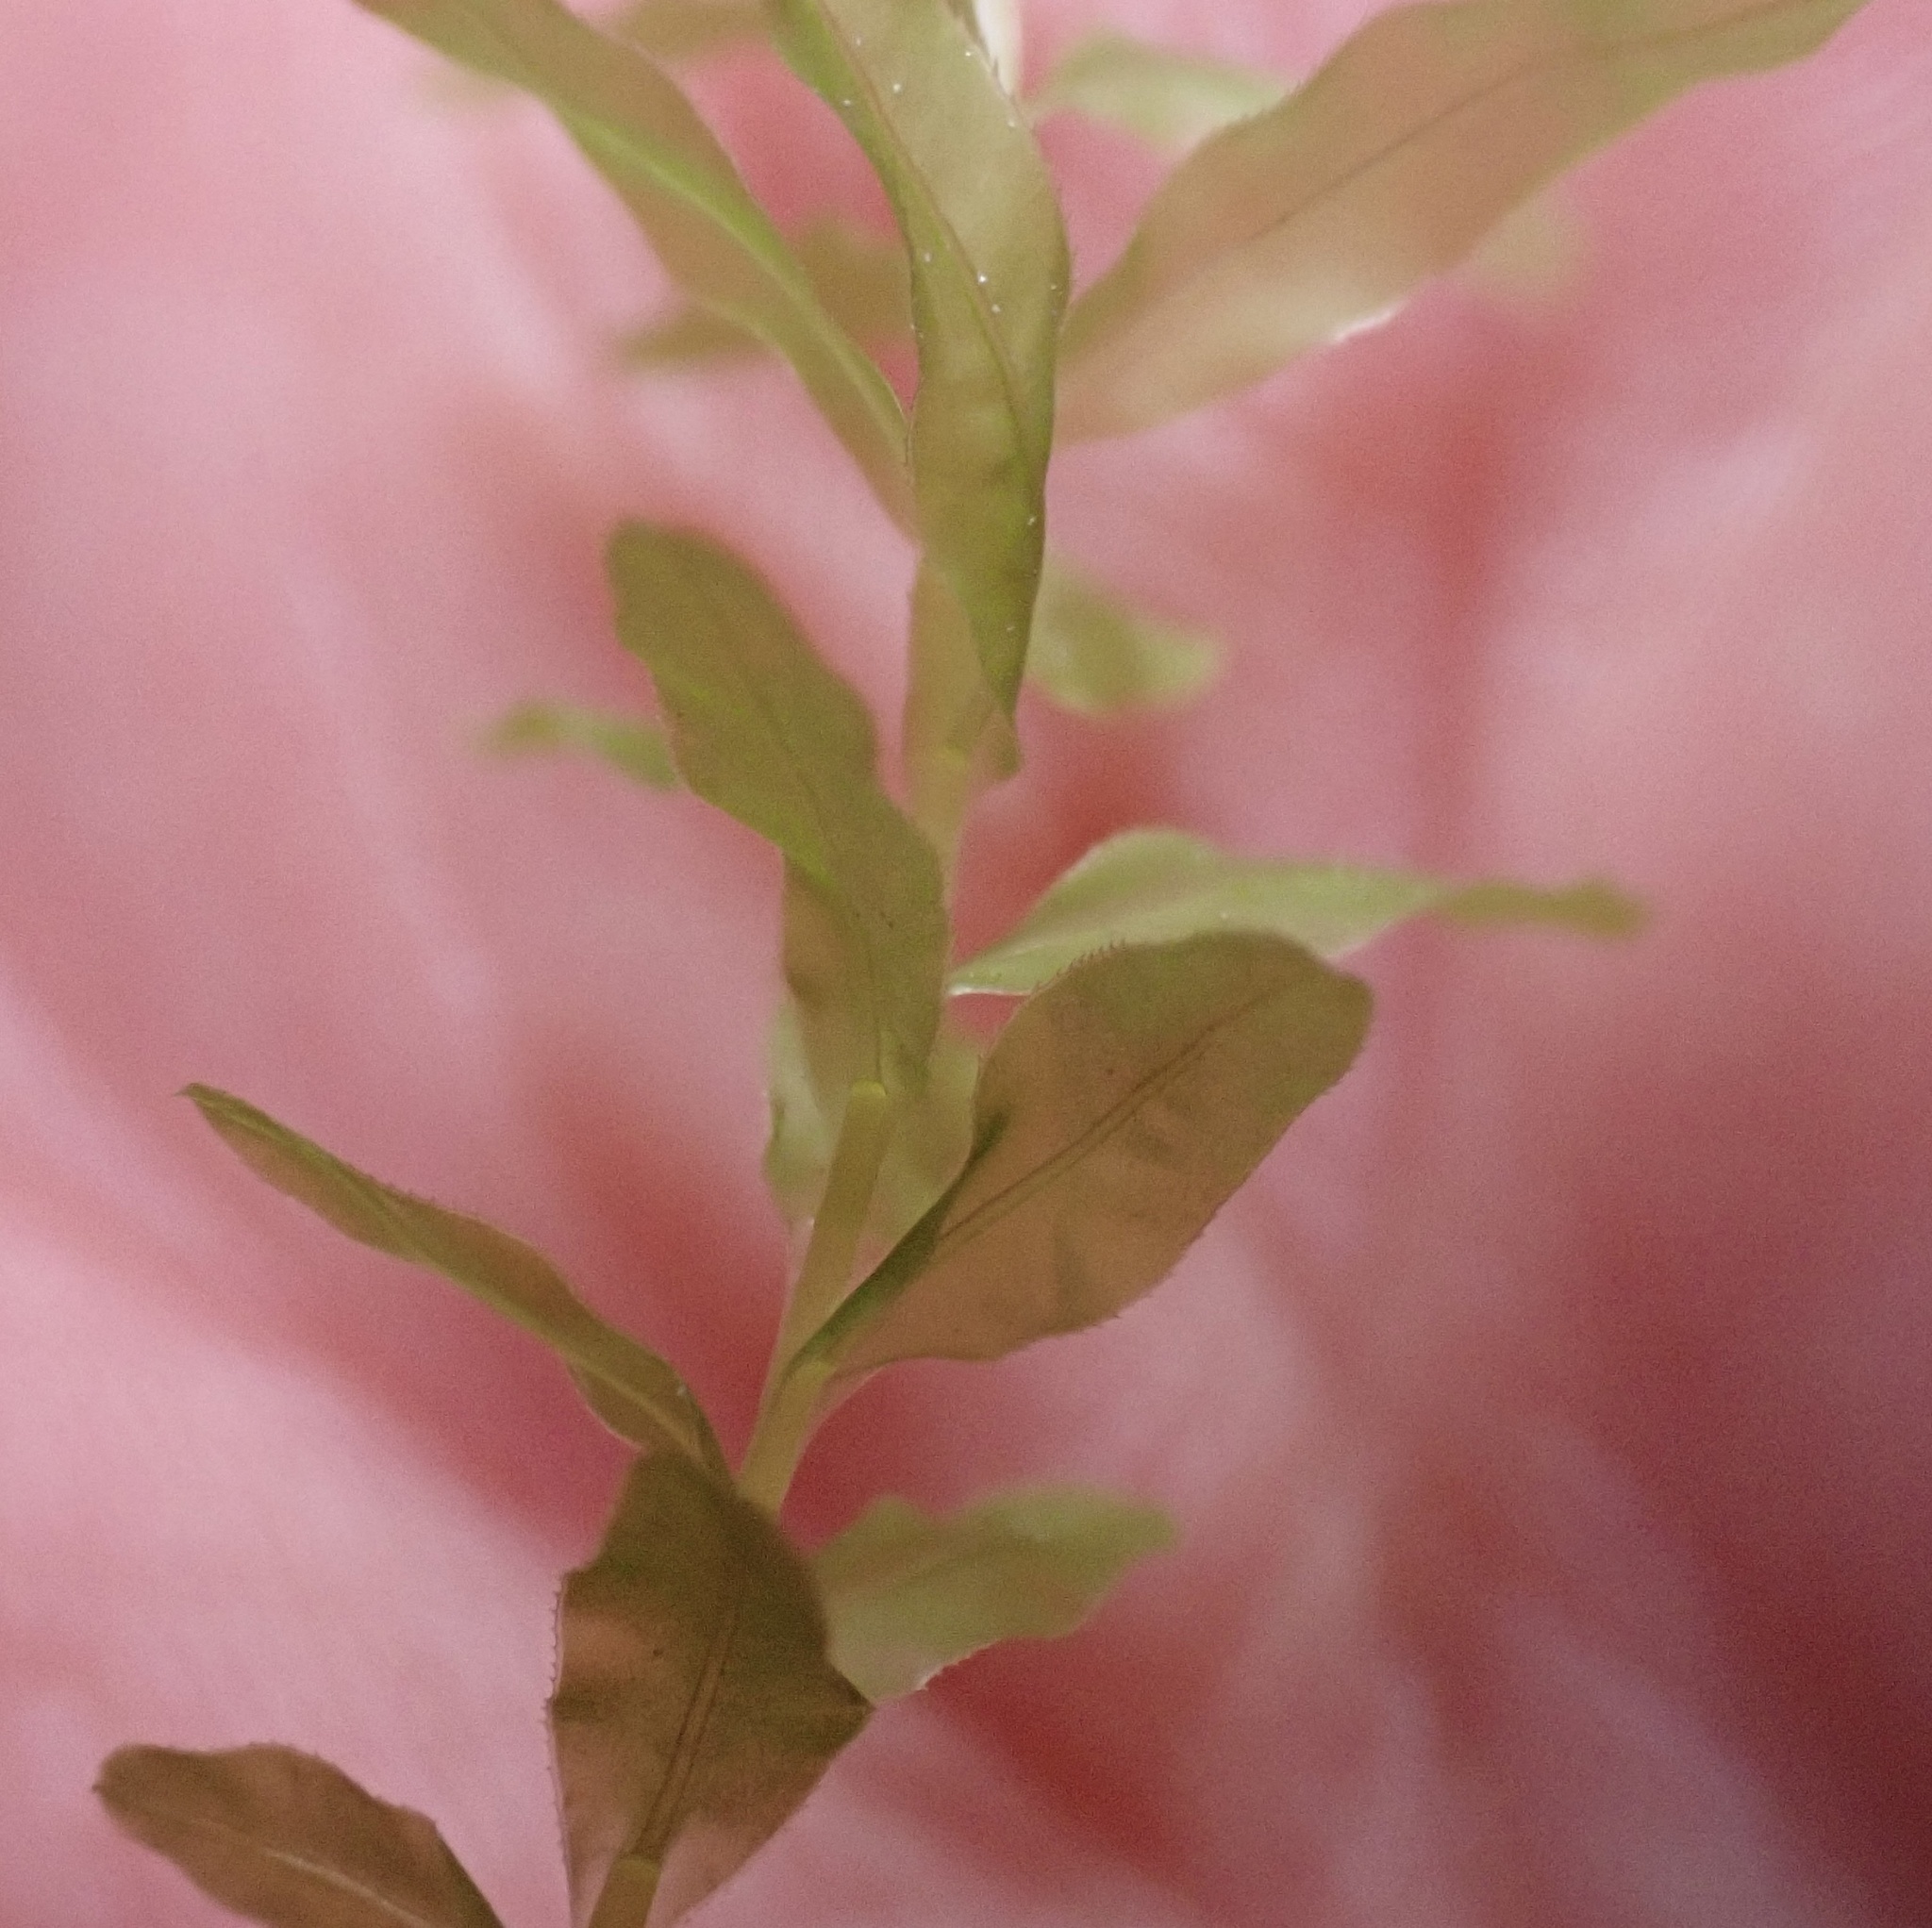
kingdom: Plantae
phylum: Bryophyta
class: Bryopsida
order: Bryales
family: Mniaceae
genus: Plagiomnium
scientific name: Plagiomnium undulatum
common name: Hart's-tongue thyme-moss
